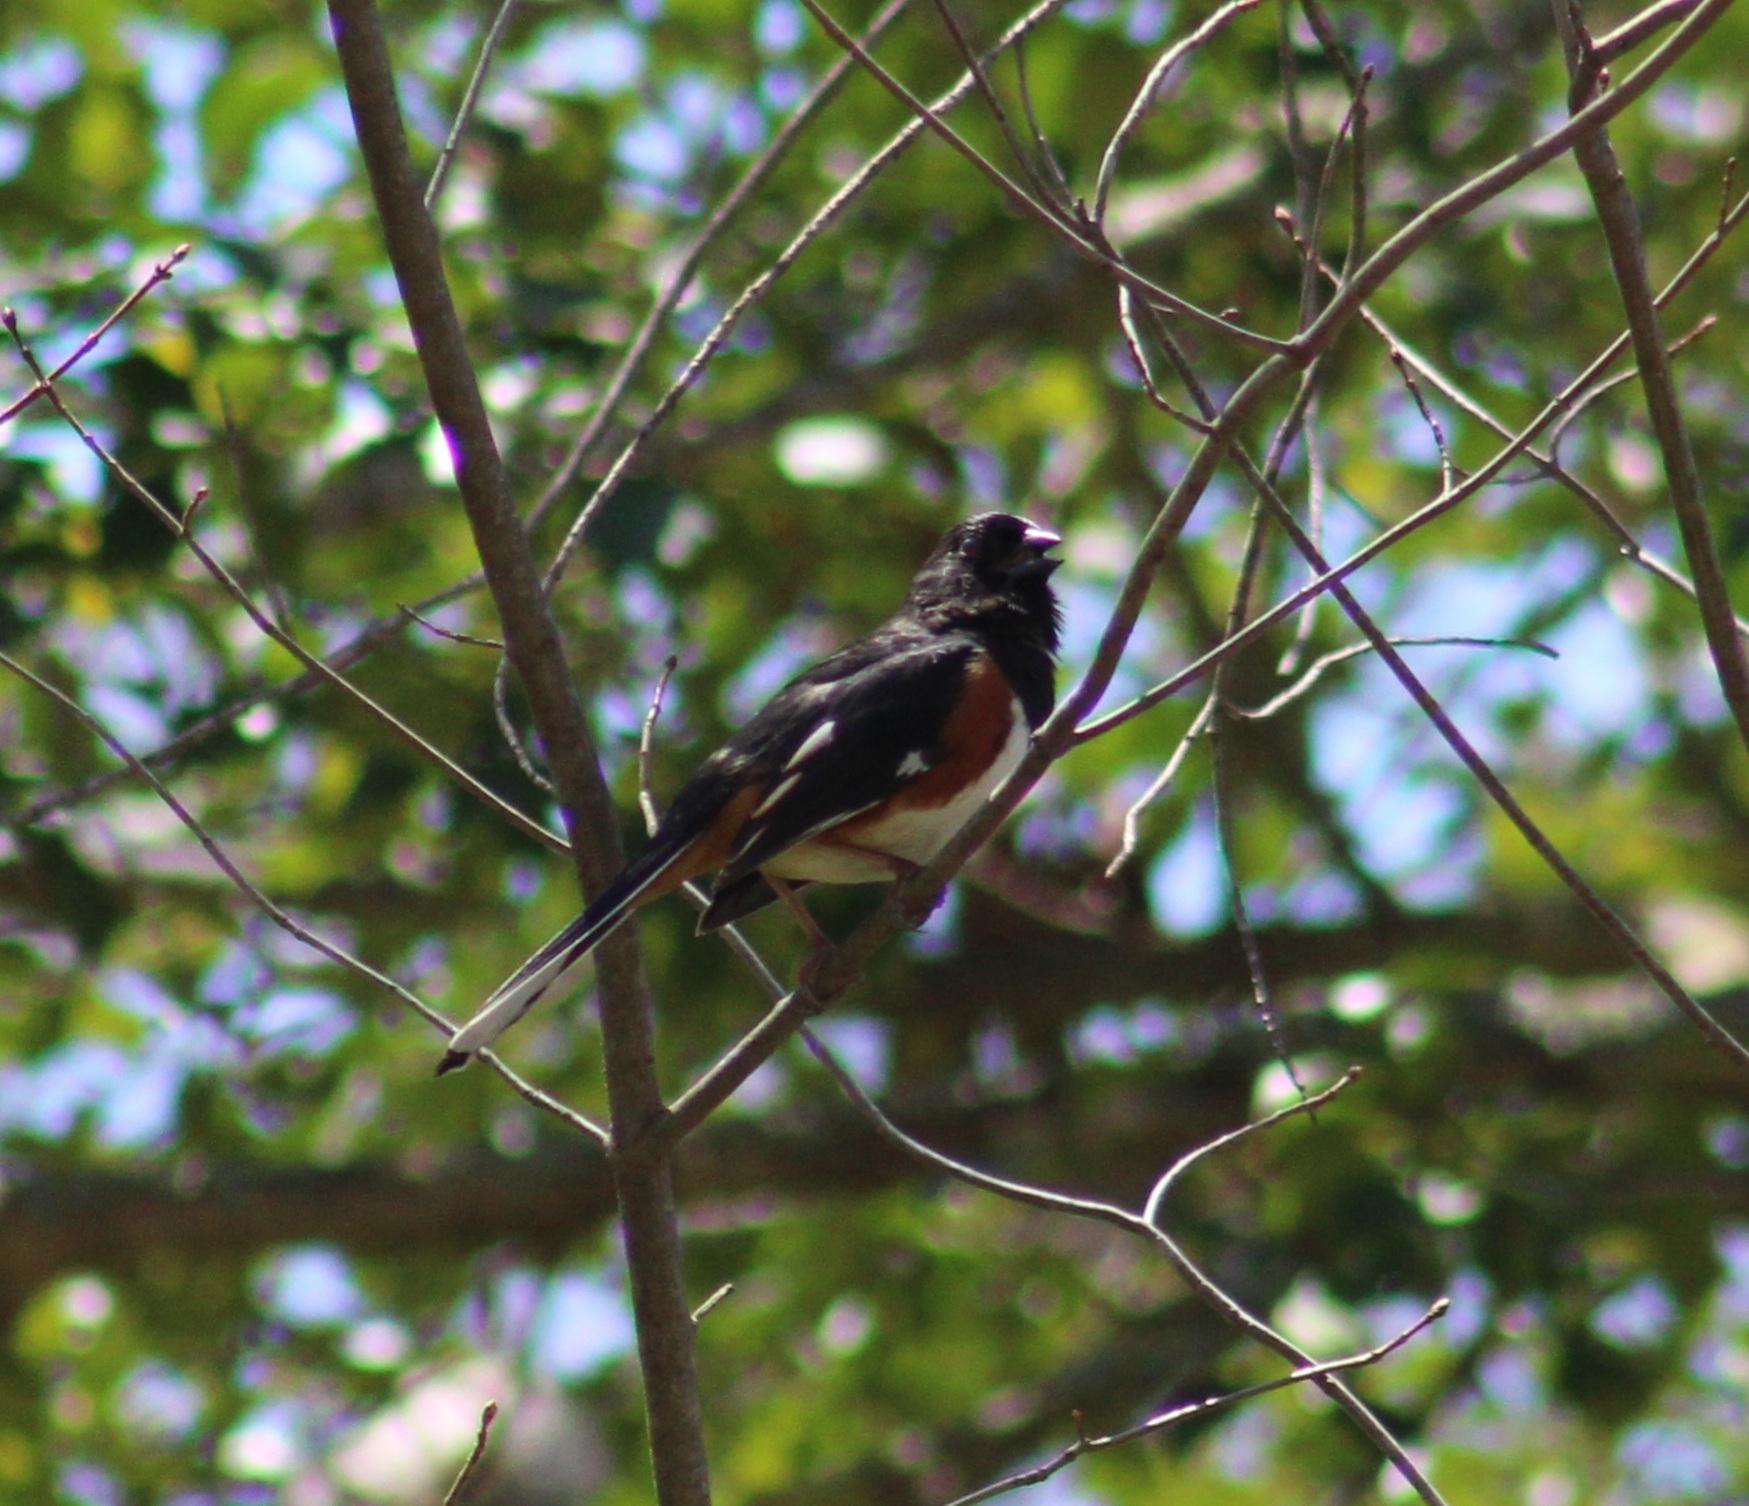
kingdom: Animalia
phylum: Chordata
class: Aves
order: Passeriformes
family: Passerellidae
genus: Pipilo
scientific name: Pipilo erythrophthalmus
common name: Eastern towhee
